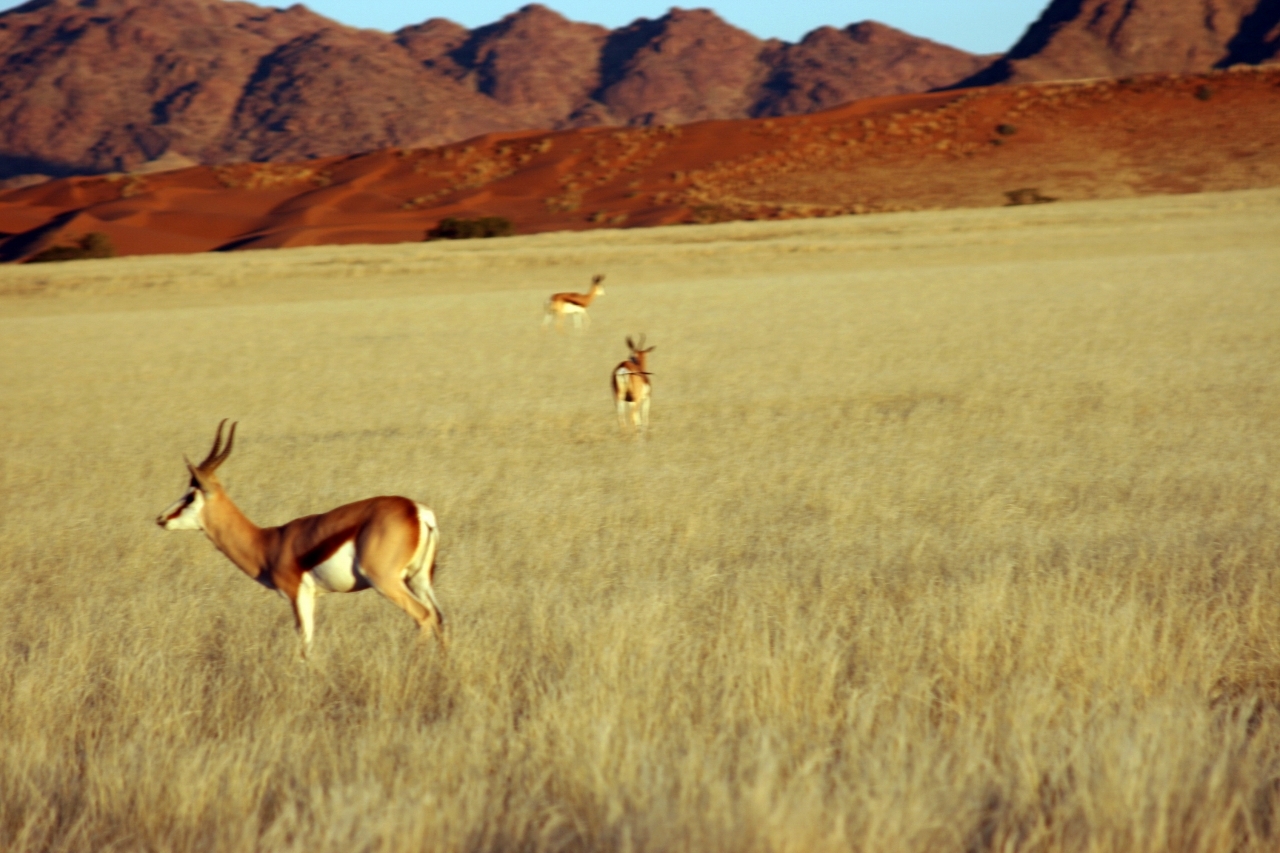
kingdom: Animalia
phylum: Chordata
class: Mammalia
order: Artiodactyla
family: Bovidae
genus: Antidorcas
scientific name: Antidorcas marsupialis
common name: Springbok
